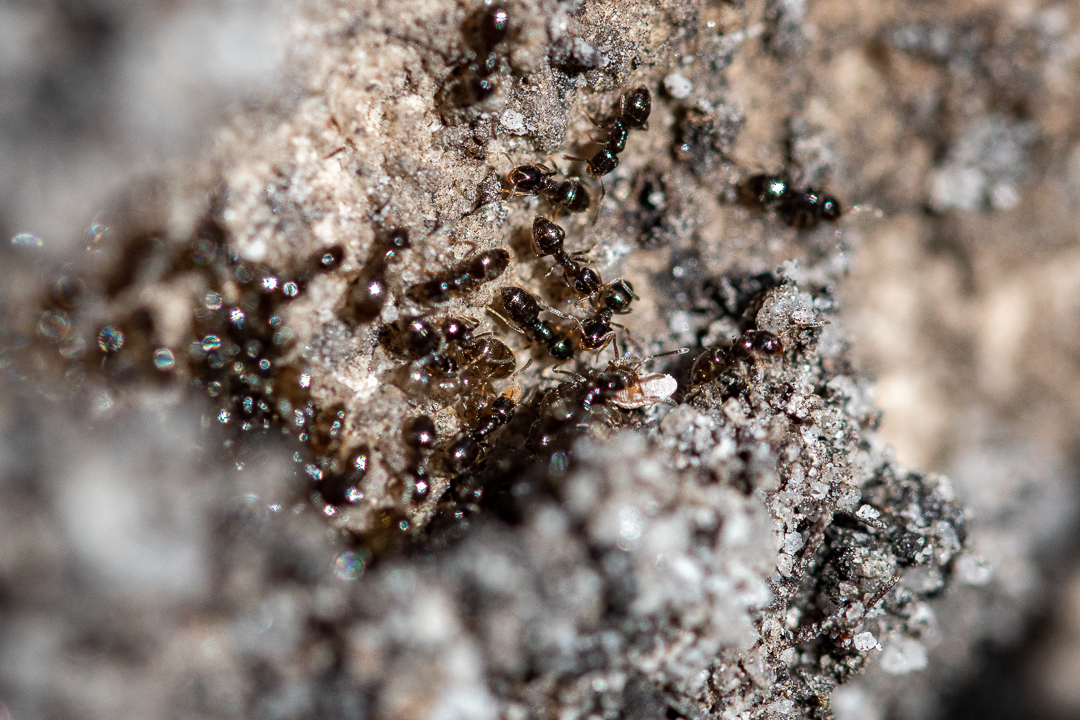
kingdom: Animalia
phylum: Arthropoda
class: Insecta
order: Hymenoptera
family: Formicidae
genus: Tapinoma
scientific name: Tapinoma pallipes
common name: Ant
